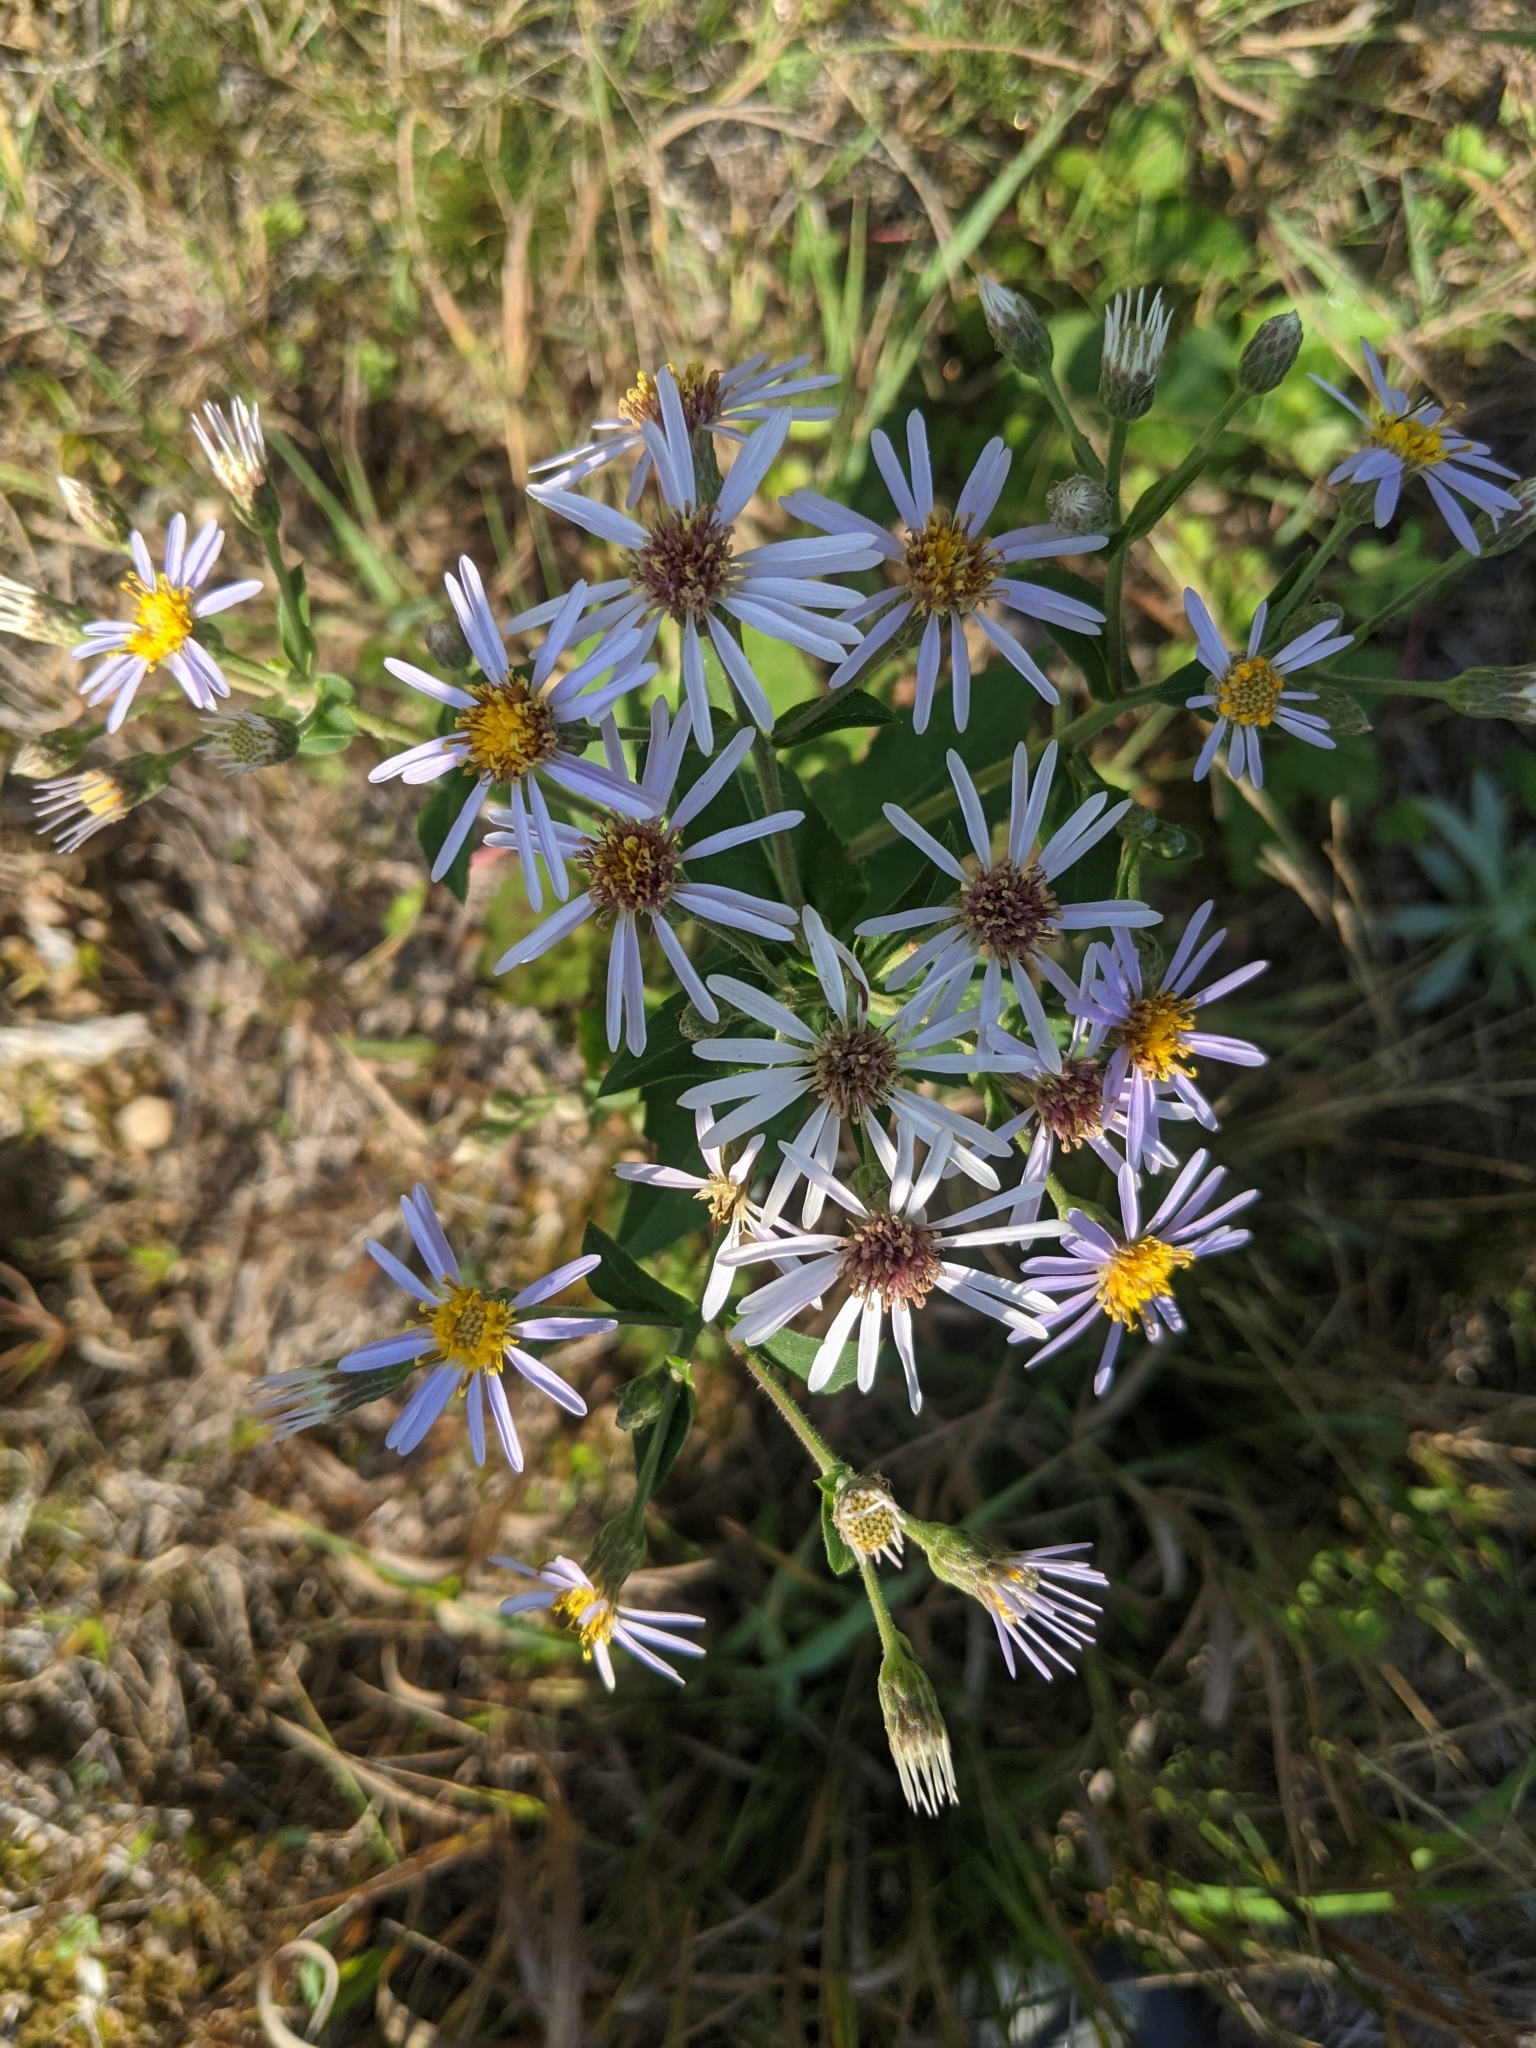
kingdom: Plantae
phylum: Tracheophyta
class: Magnoliopsida
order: Asterales
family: Asteraceae
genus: Eurybia
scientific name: Eurybia macrophylla
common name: Big-leaved aster
